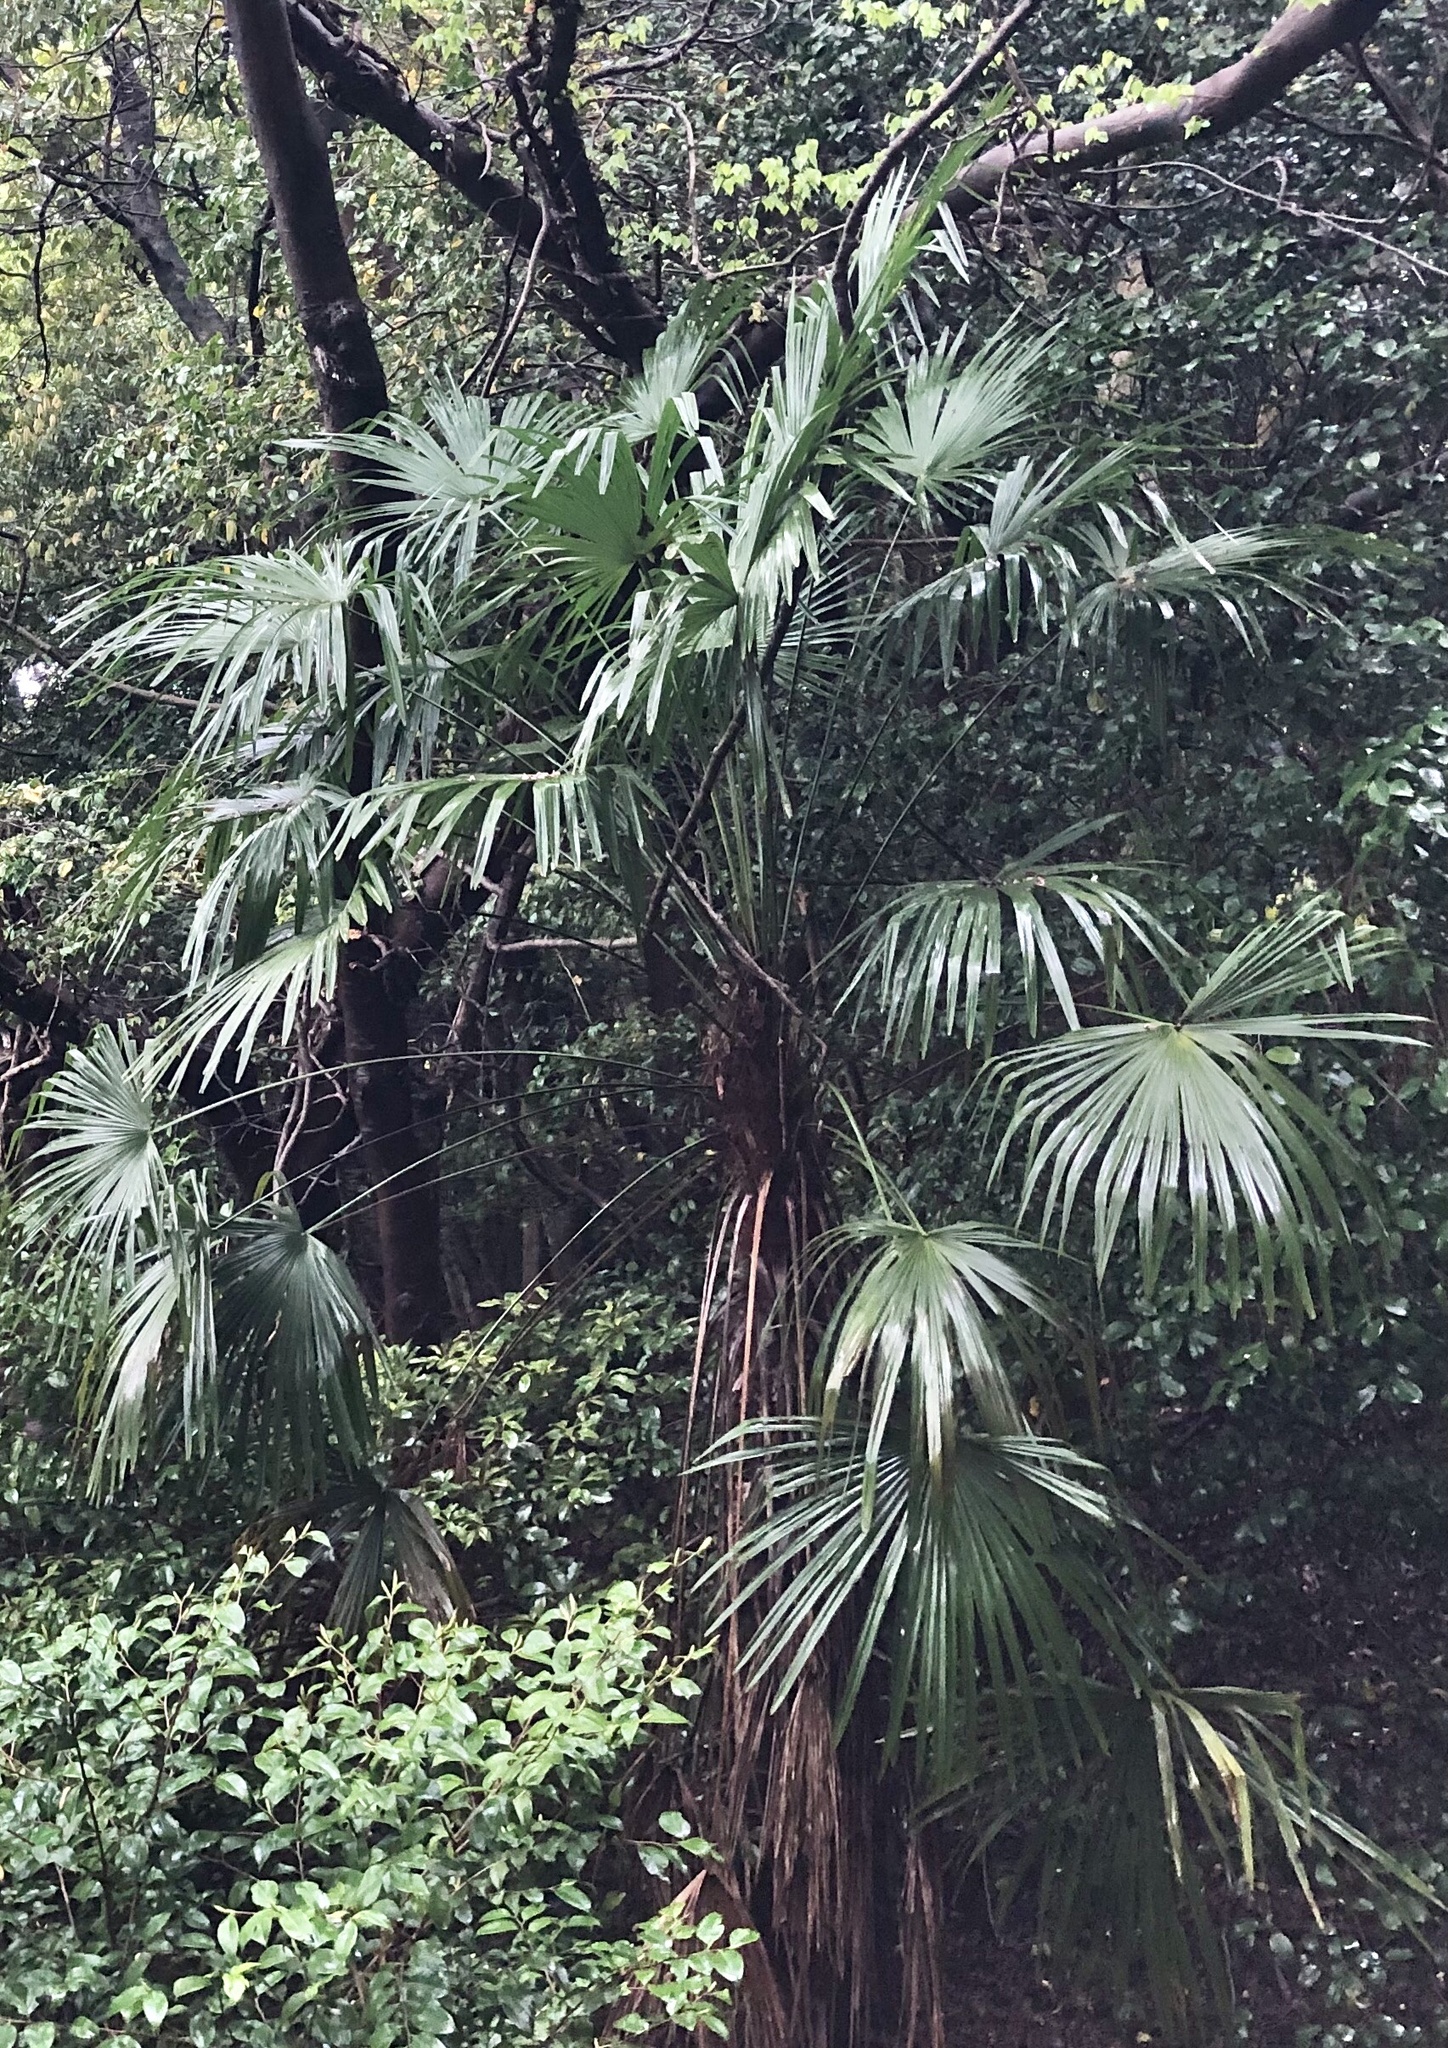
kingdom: Plantae
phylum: Tracheophyta
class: Liliopsida
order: Arecales
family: Arecaceae
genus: Trachycarpus
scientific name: Trachycarpus fortunei
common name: Chusan palm
